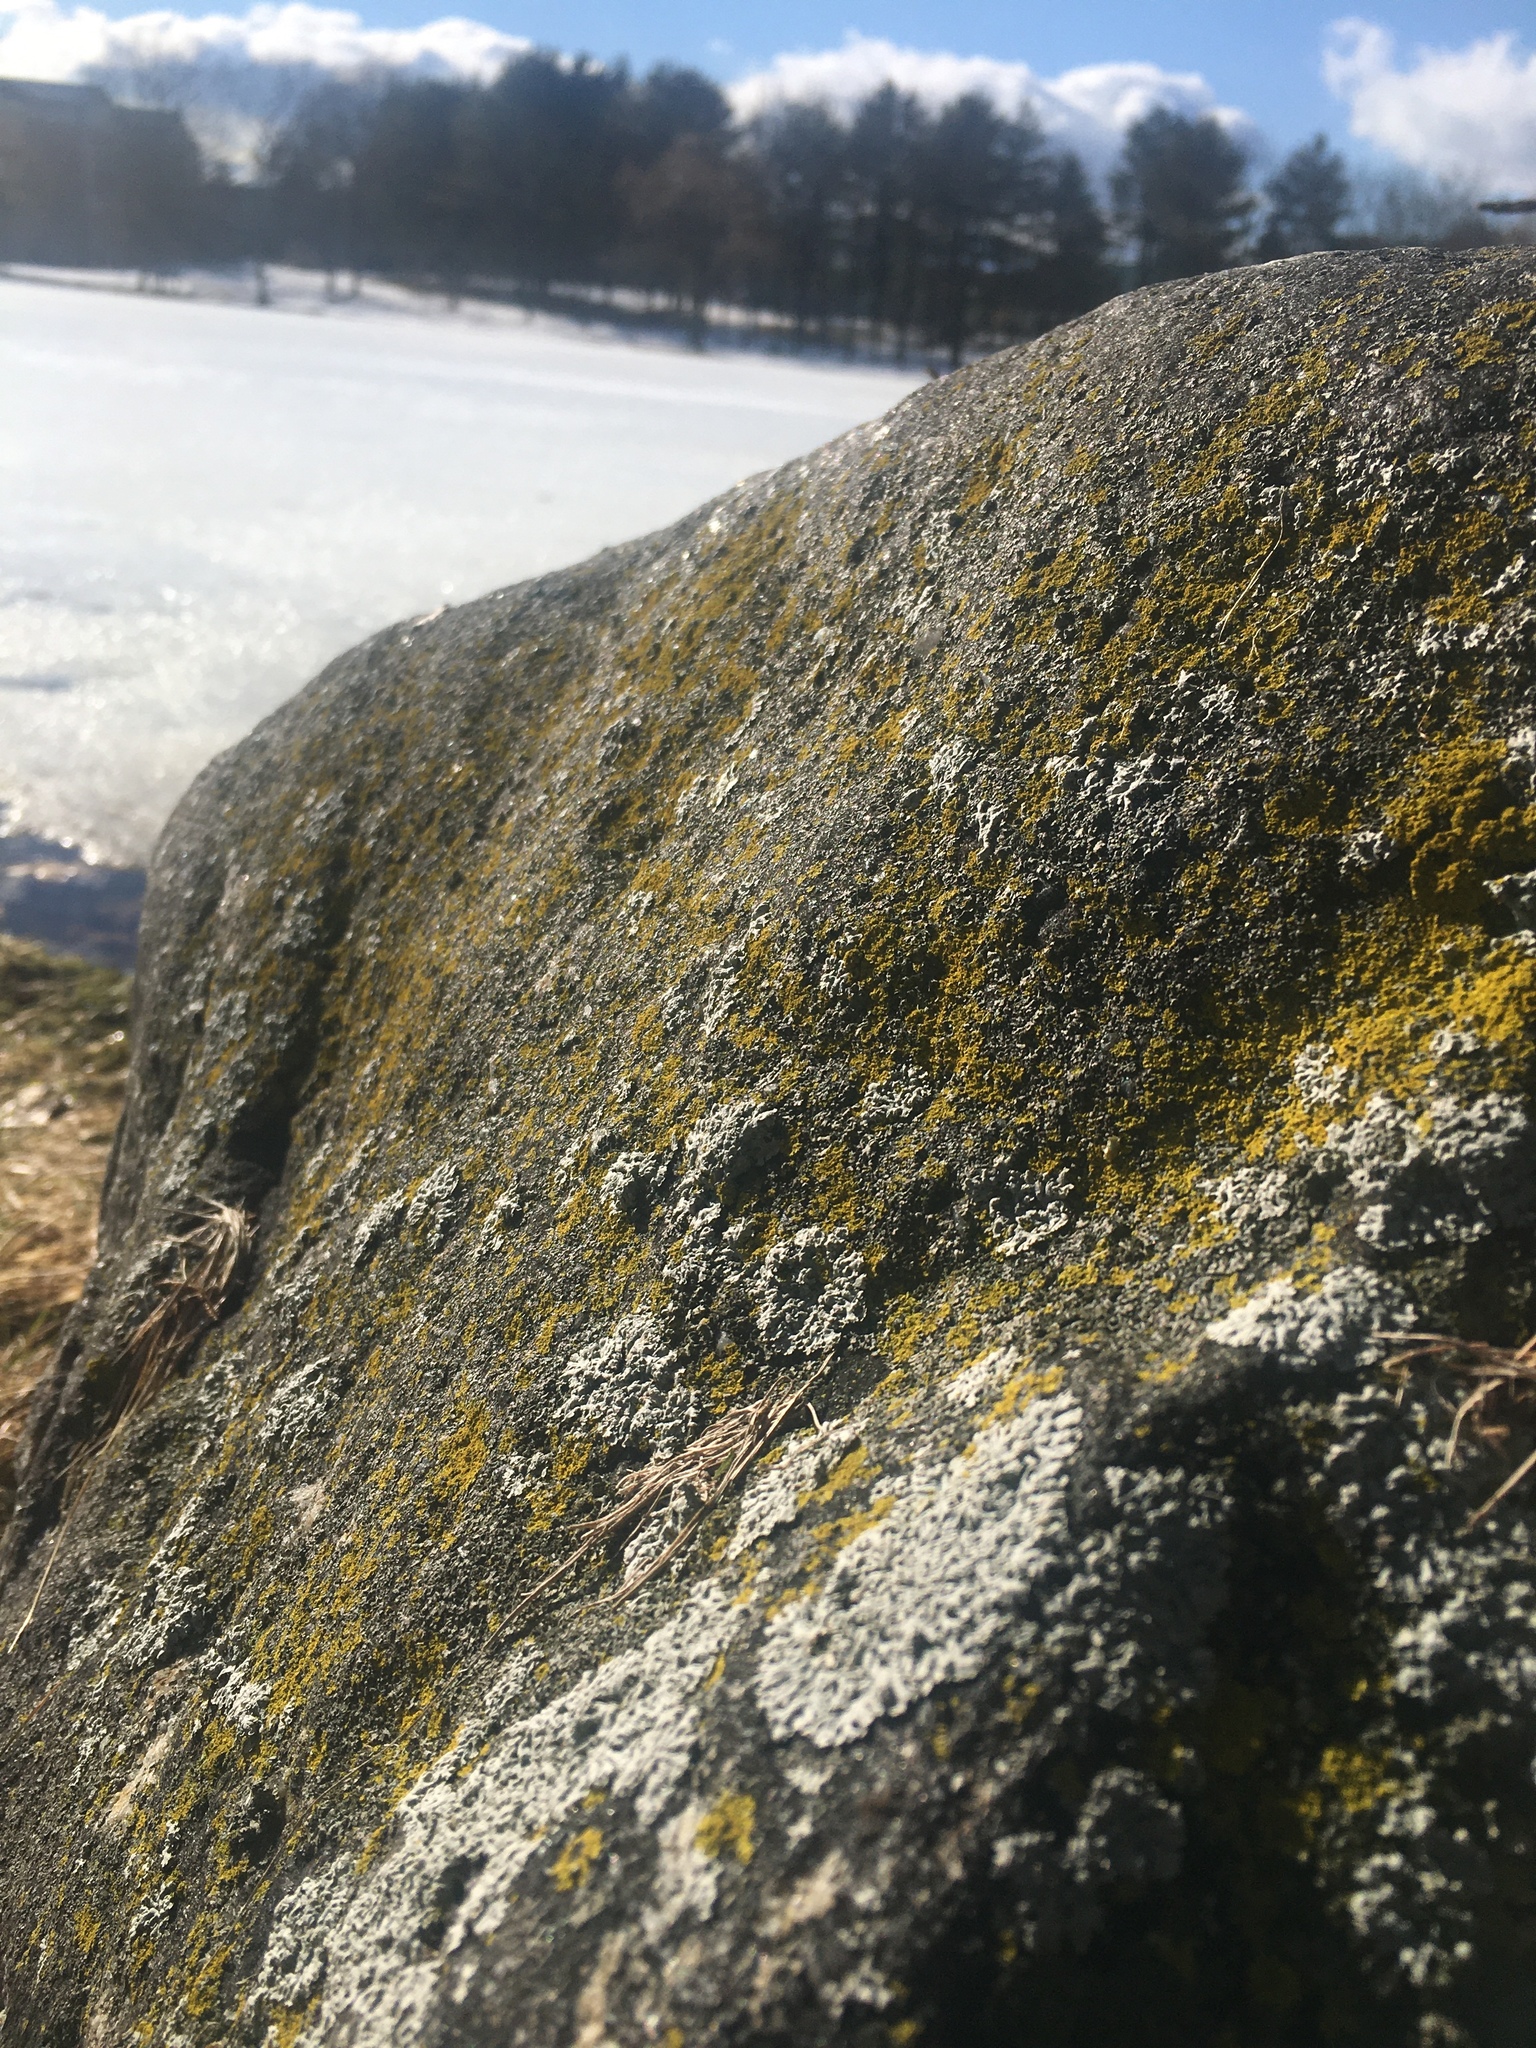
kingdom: Fungi
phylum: Ascomycota
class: Candelariomycetes
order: Candelariales
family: Candelariaceae
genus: Candelaria
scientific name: Candelaria concolor
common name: Candleflame lichen
